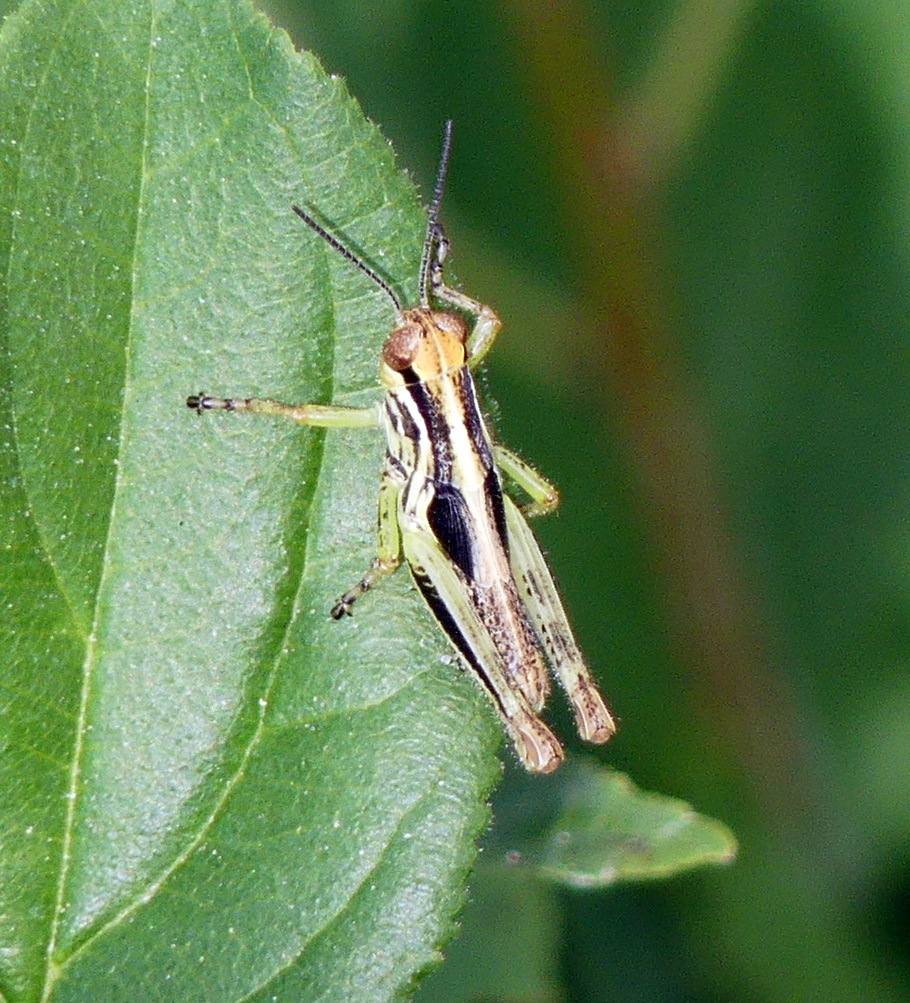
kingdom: Animalia
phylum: Arthropoda
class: Insecta
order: Orthoptera
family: Acrididae
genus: Melanoplus
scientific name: Melanoplus femurrubrum
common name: Red-legged grasshopper
